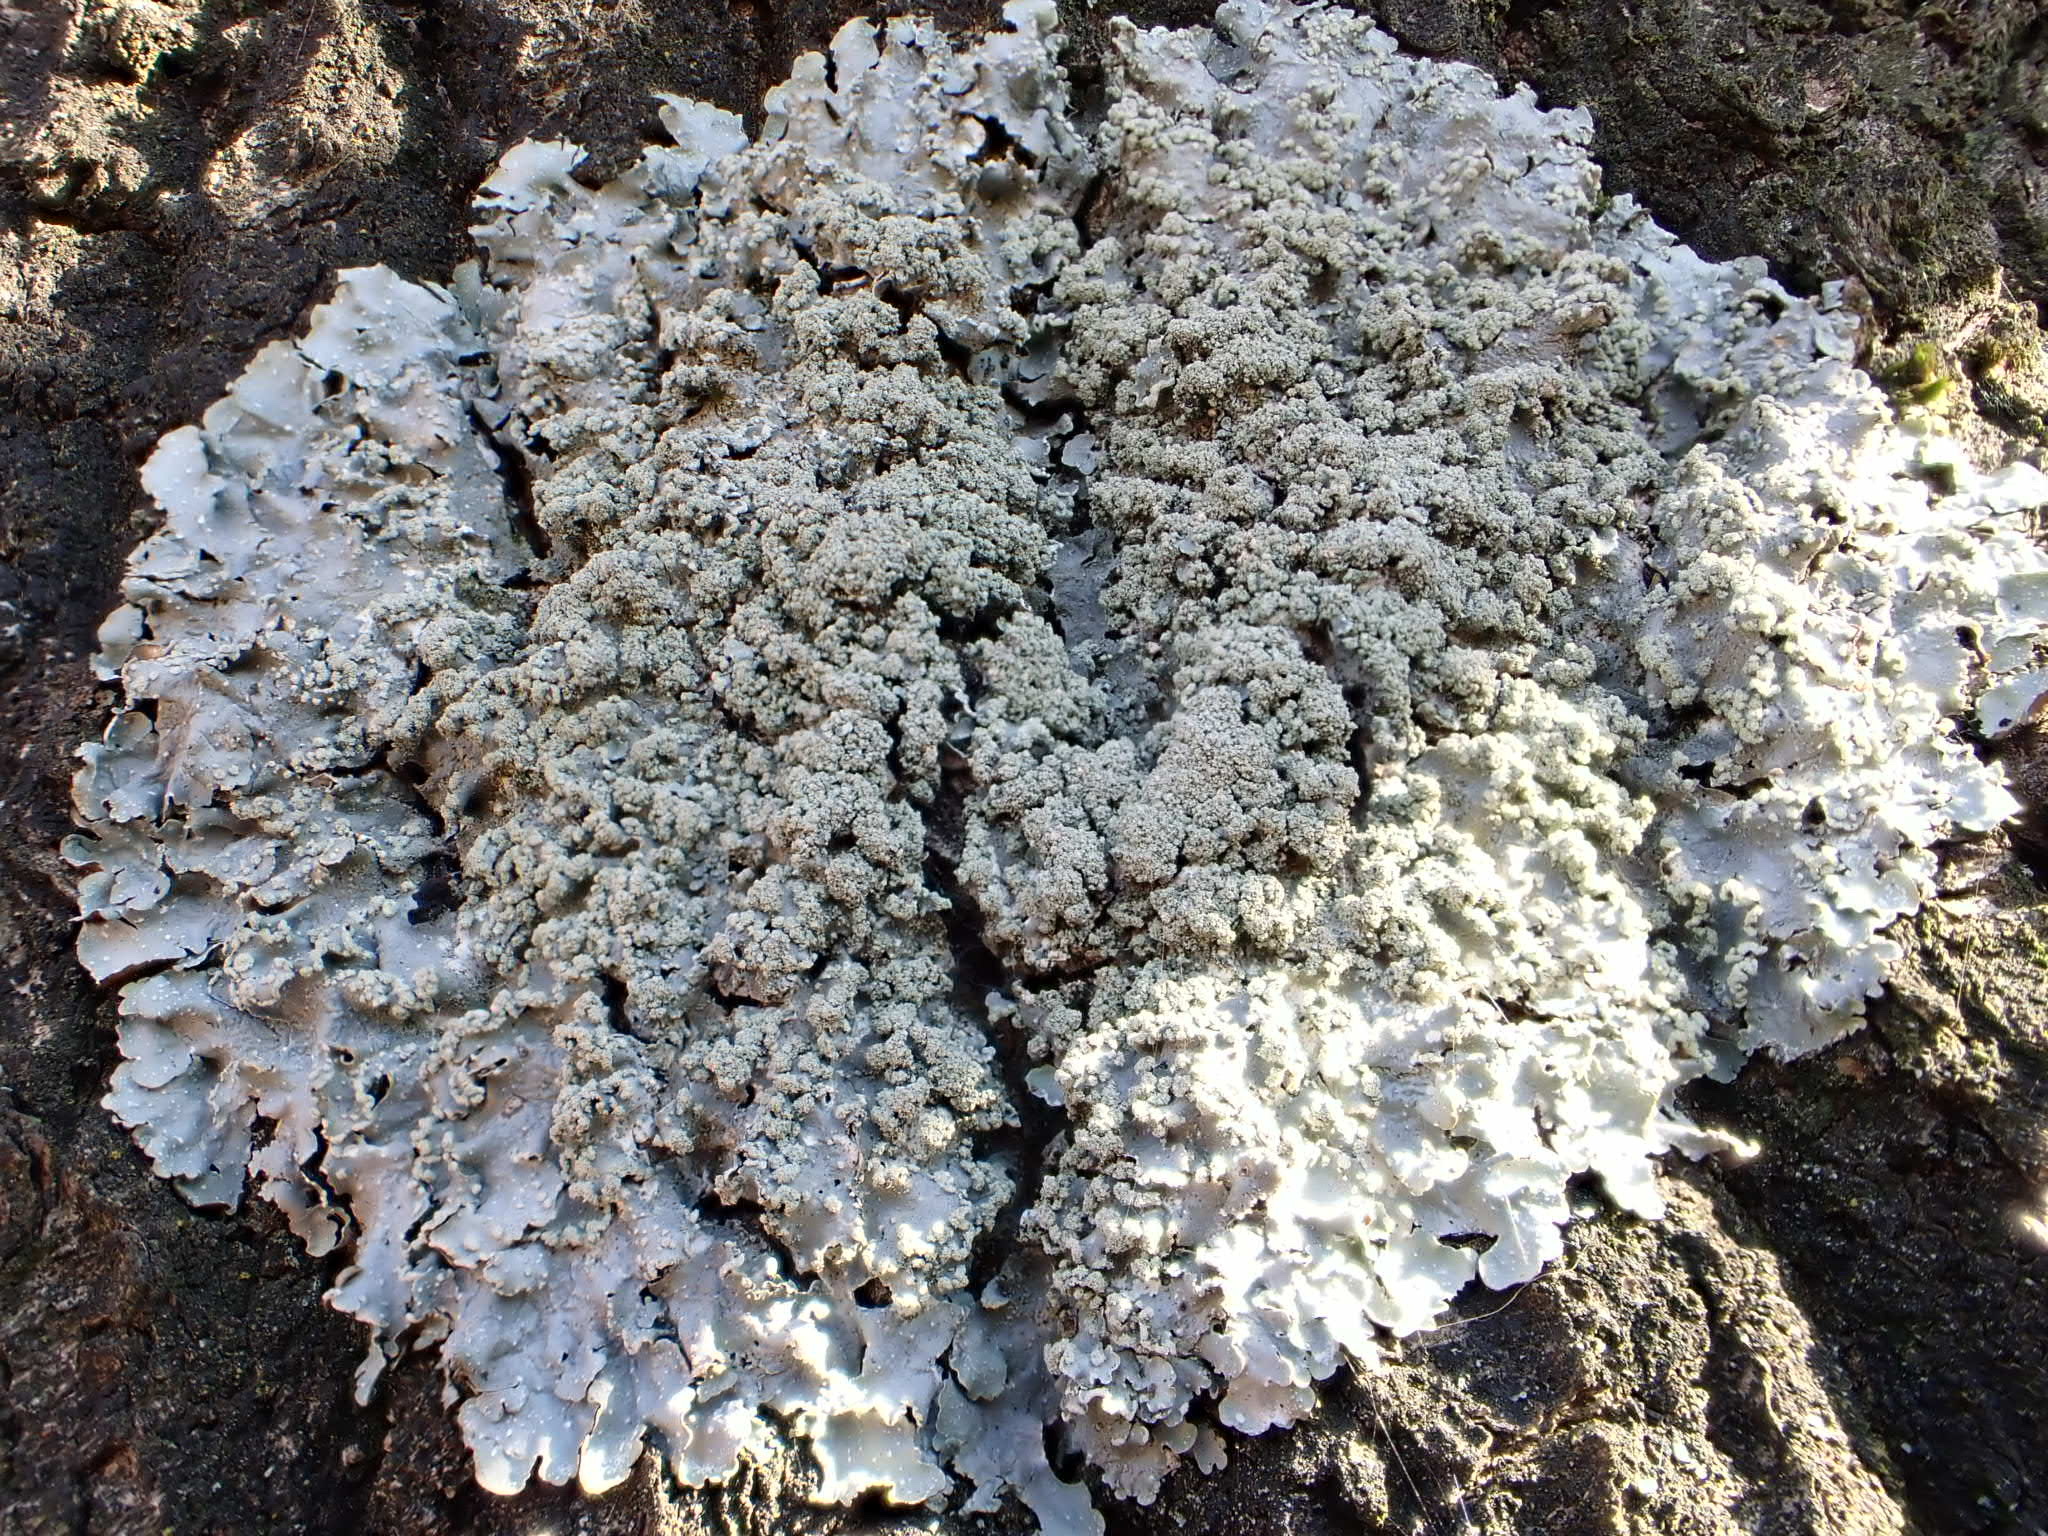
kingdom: Fungi
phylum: Ascomycota
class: Lecanoromycetes
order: Lecanorales
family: Parmeliaceae
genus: Punctelia
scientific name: Punctelia subrudecta
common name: Powdered speckled shield lichen
